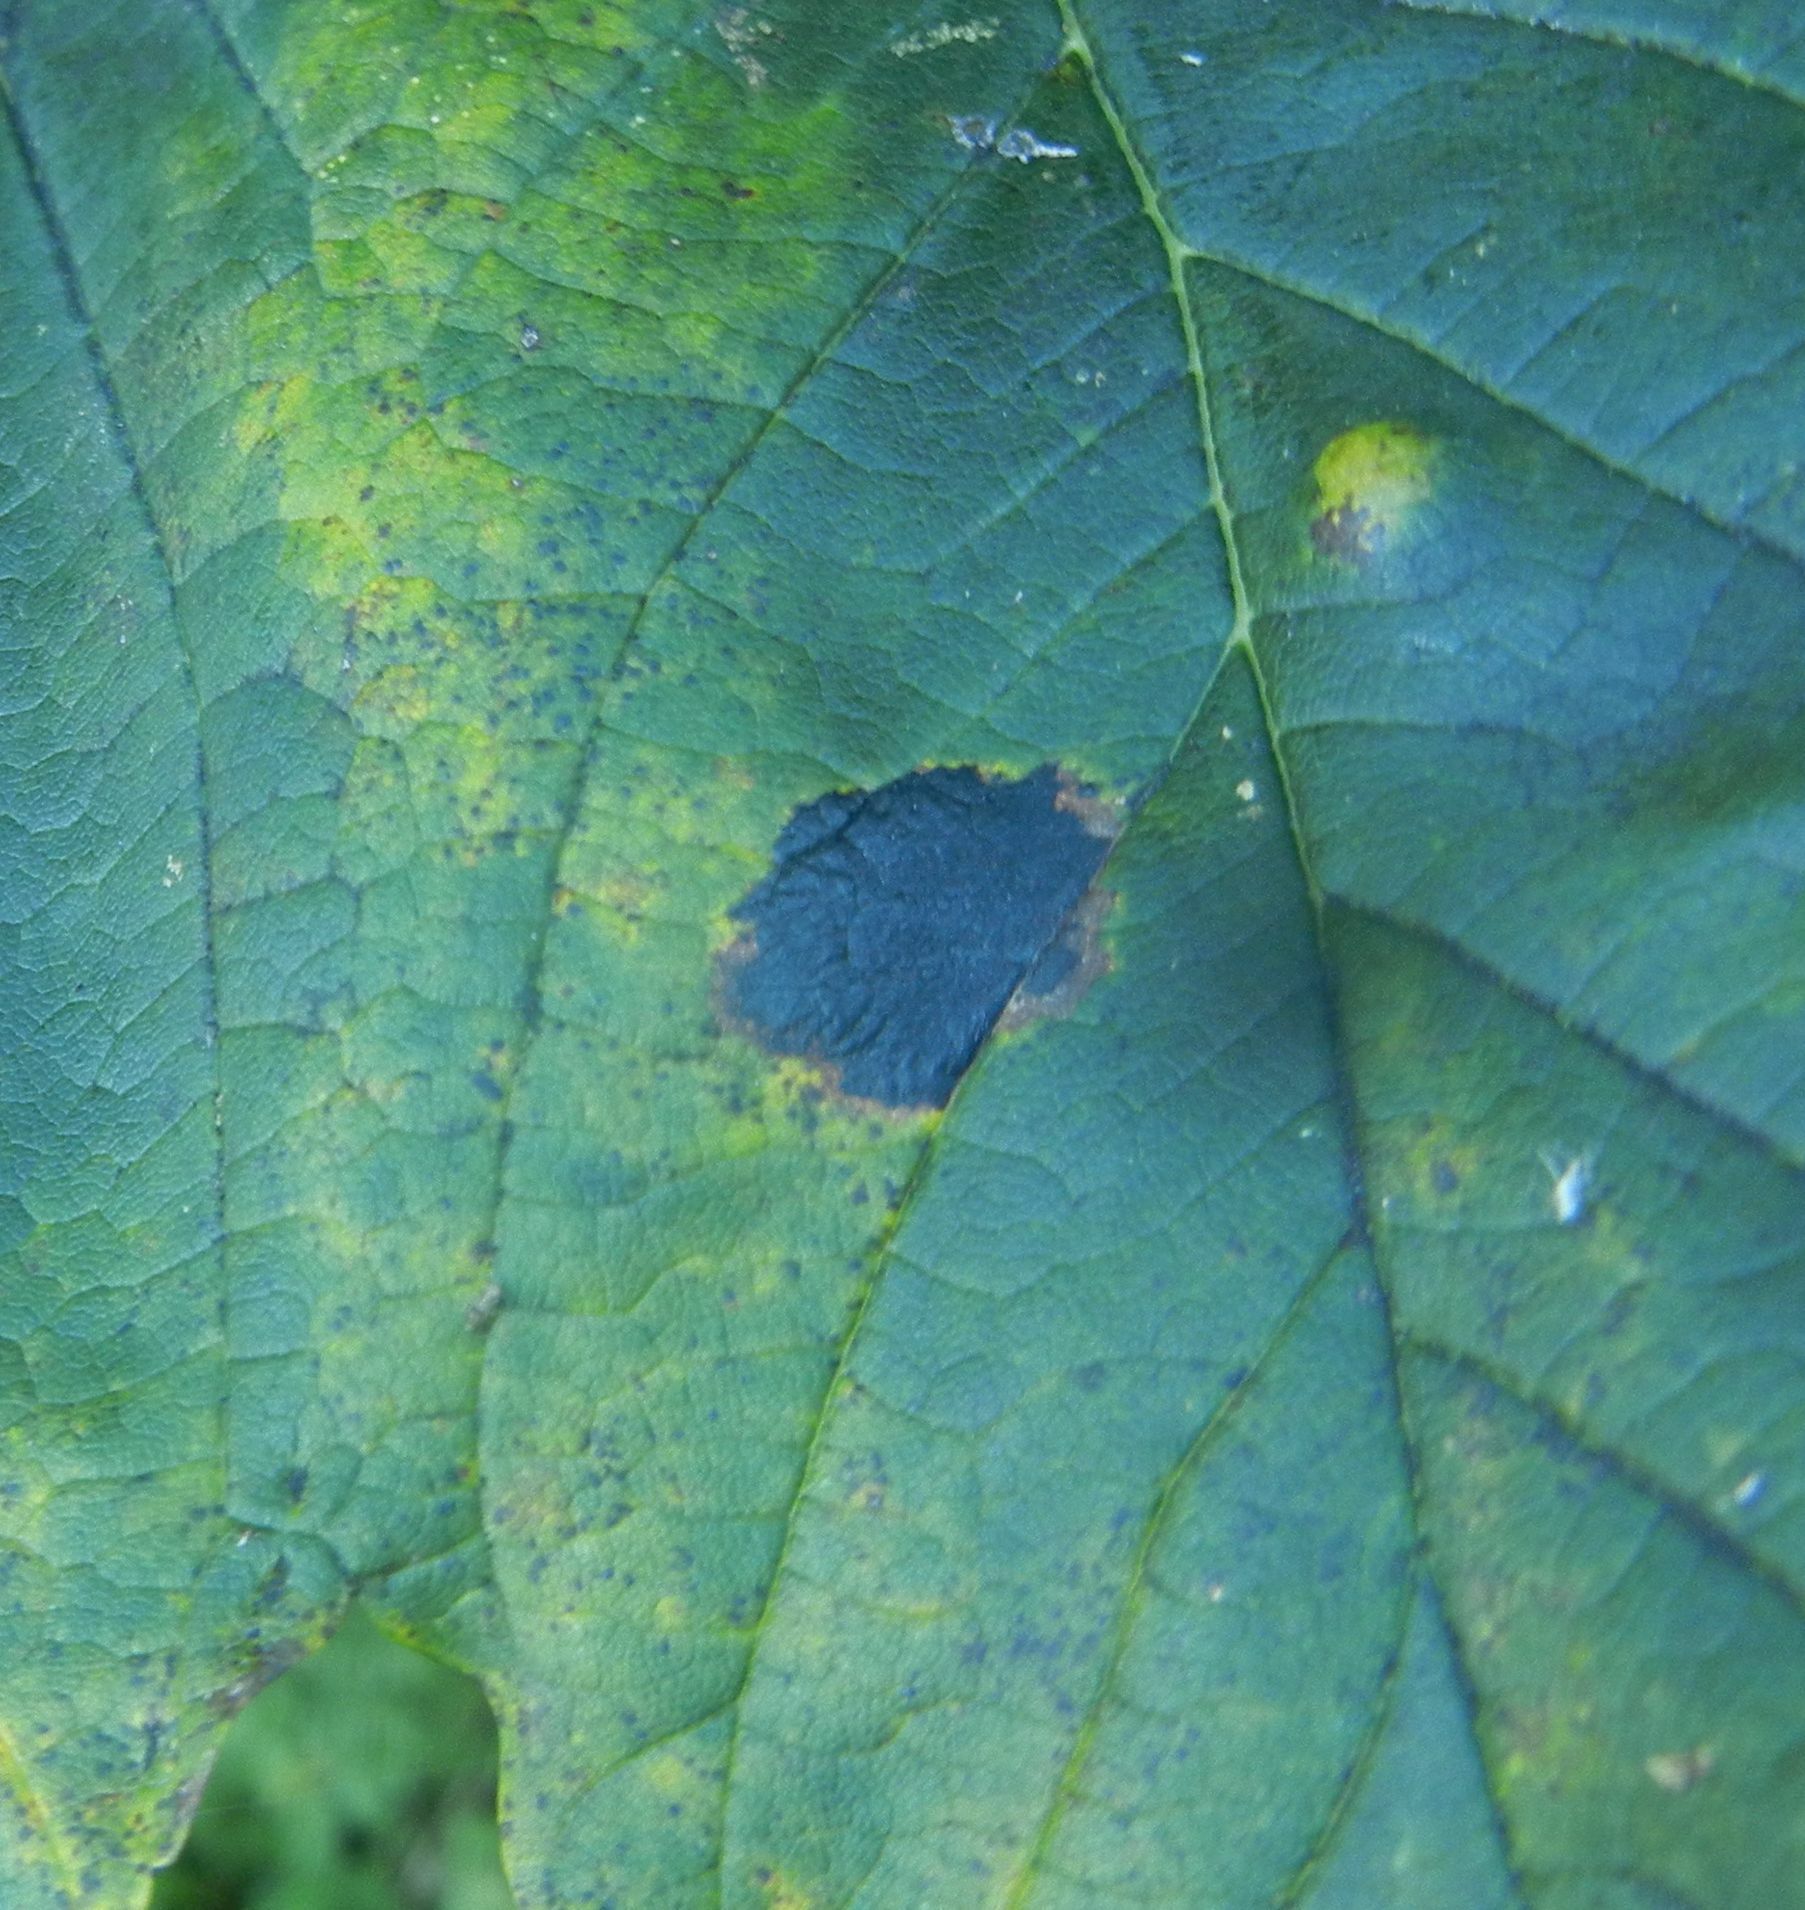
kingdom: Fungi
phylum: Ascomycota
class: Leotiomycetes
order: Rhytismatales
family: Rhytismataceae
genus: Rhytisma
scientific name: Rhytisma acerinum
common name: European tar spot
